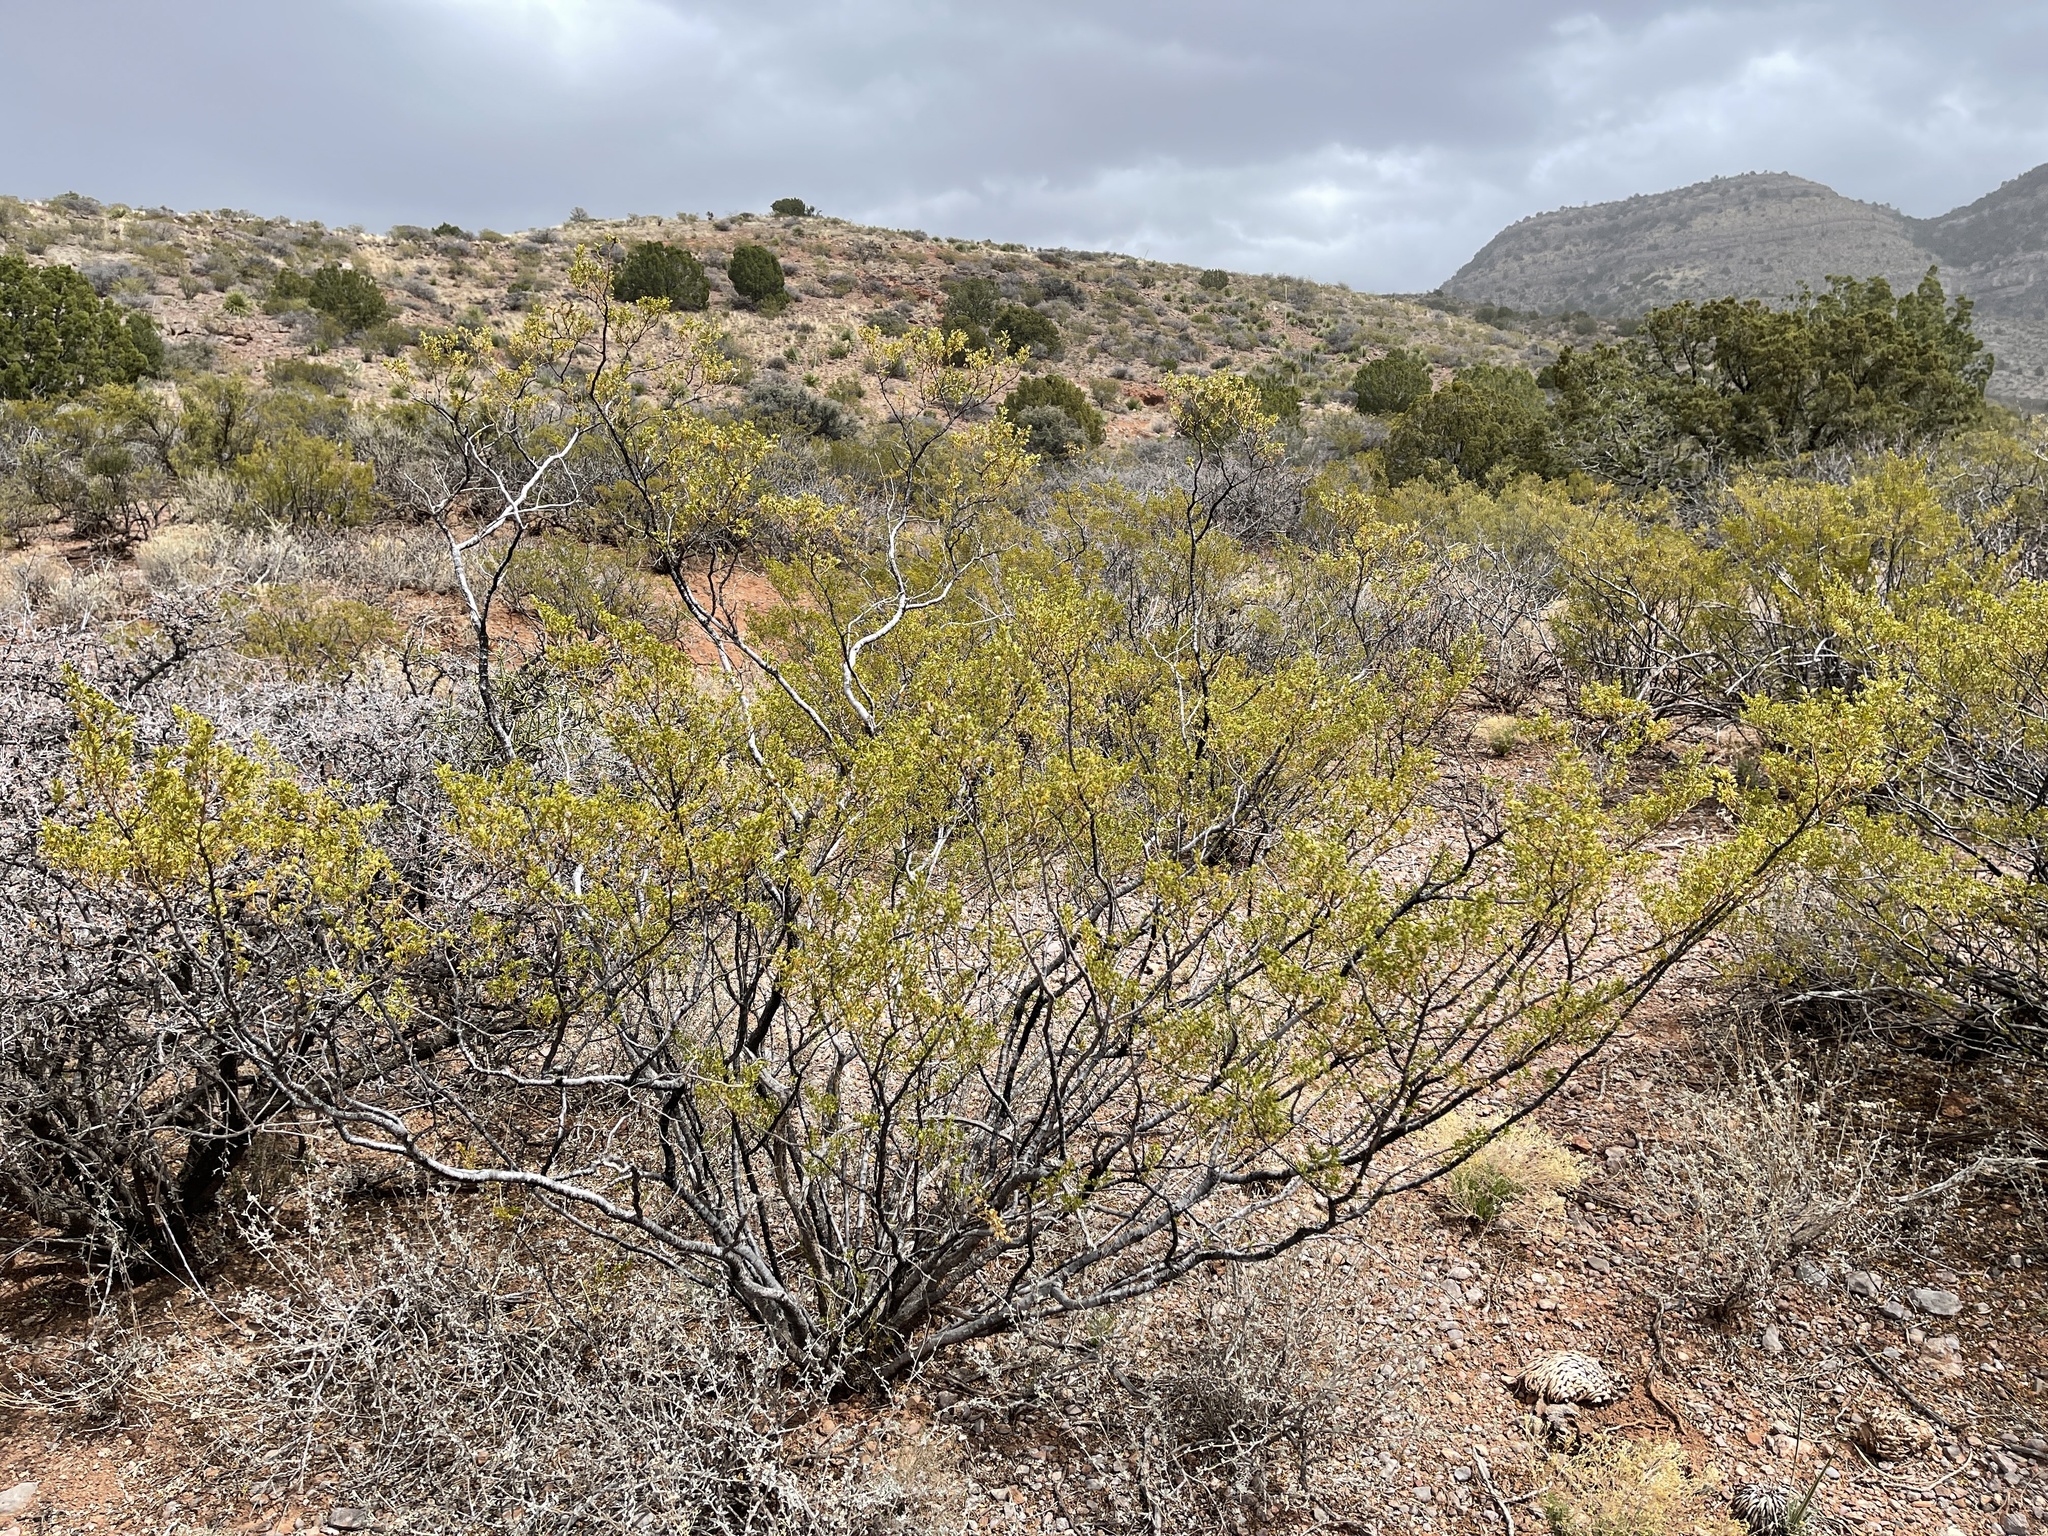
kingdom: Plantae
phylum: Tracheophyta
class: Magnoliopsida
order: Zygophyllales
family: Zygophyllaceae
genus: Larrea
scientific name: Larrea tridentata
